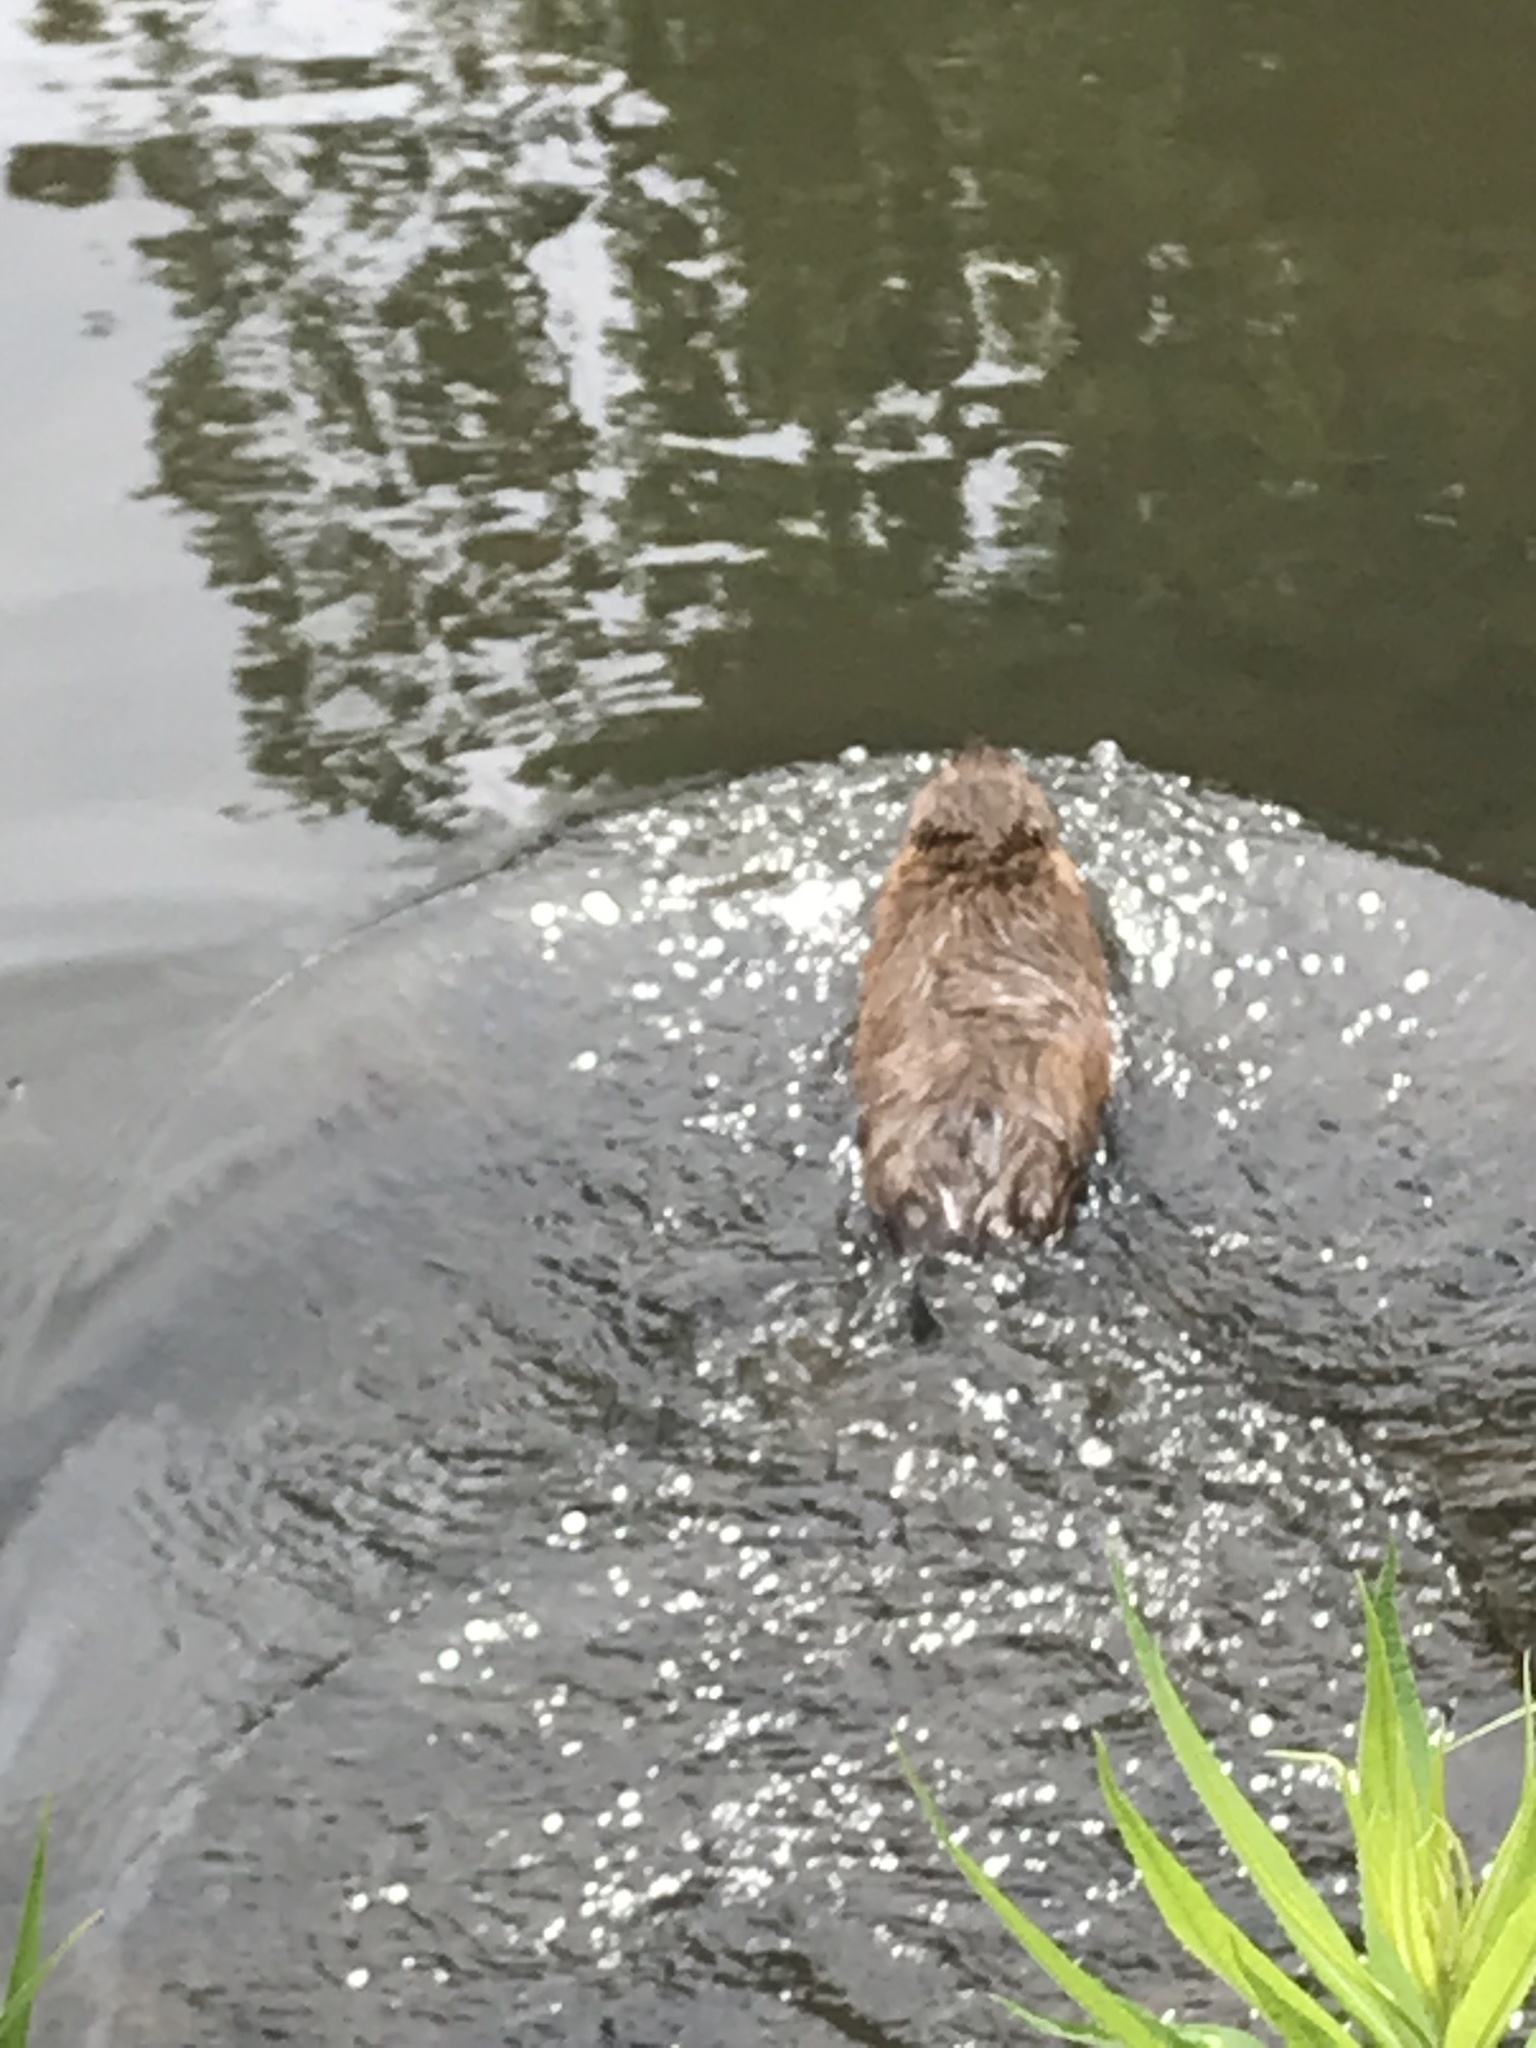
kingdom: Animalia
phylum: Chordata
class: Mammalia
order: Rodentia
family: Cricetidae
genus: Ondatra
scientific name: Ondatra zibethicus
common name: Muskrat
